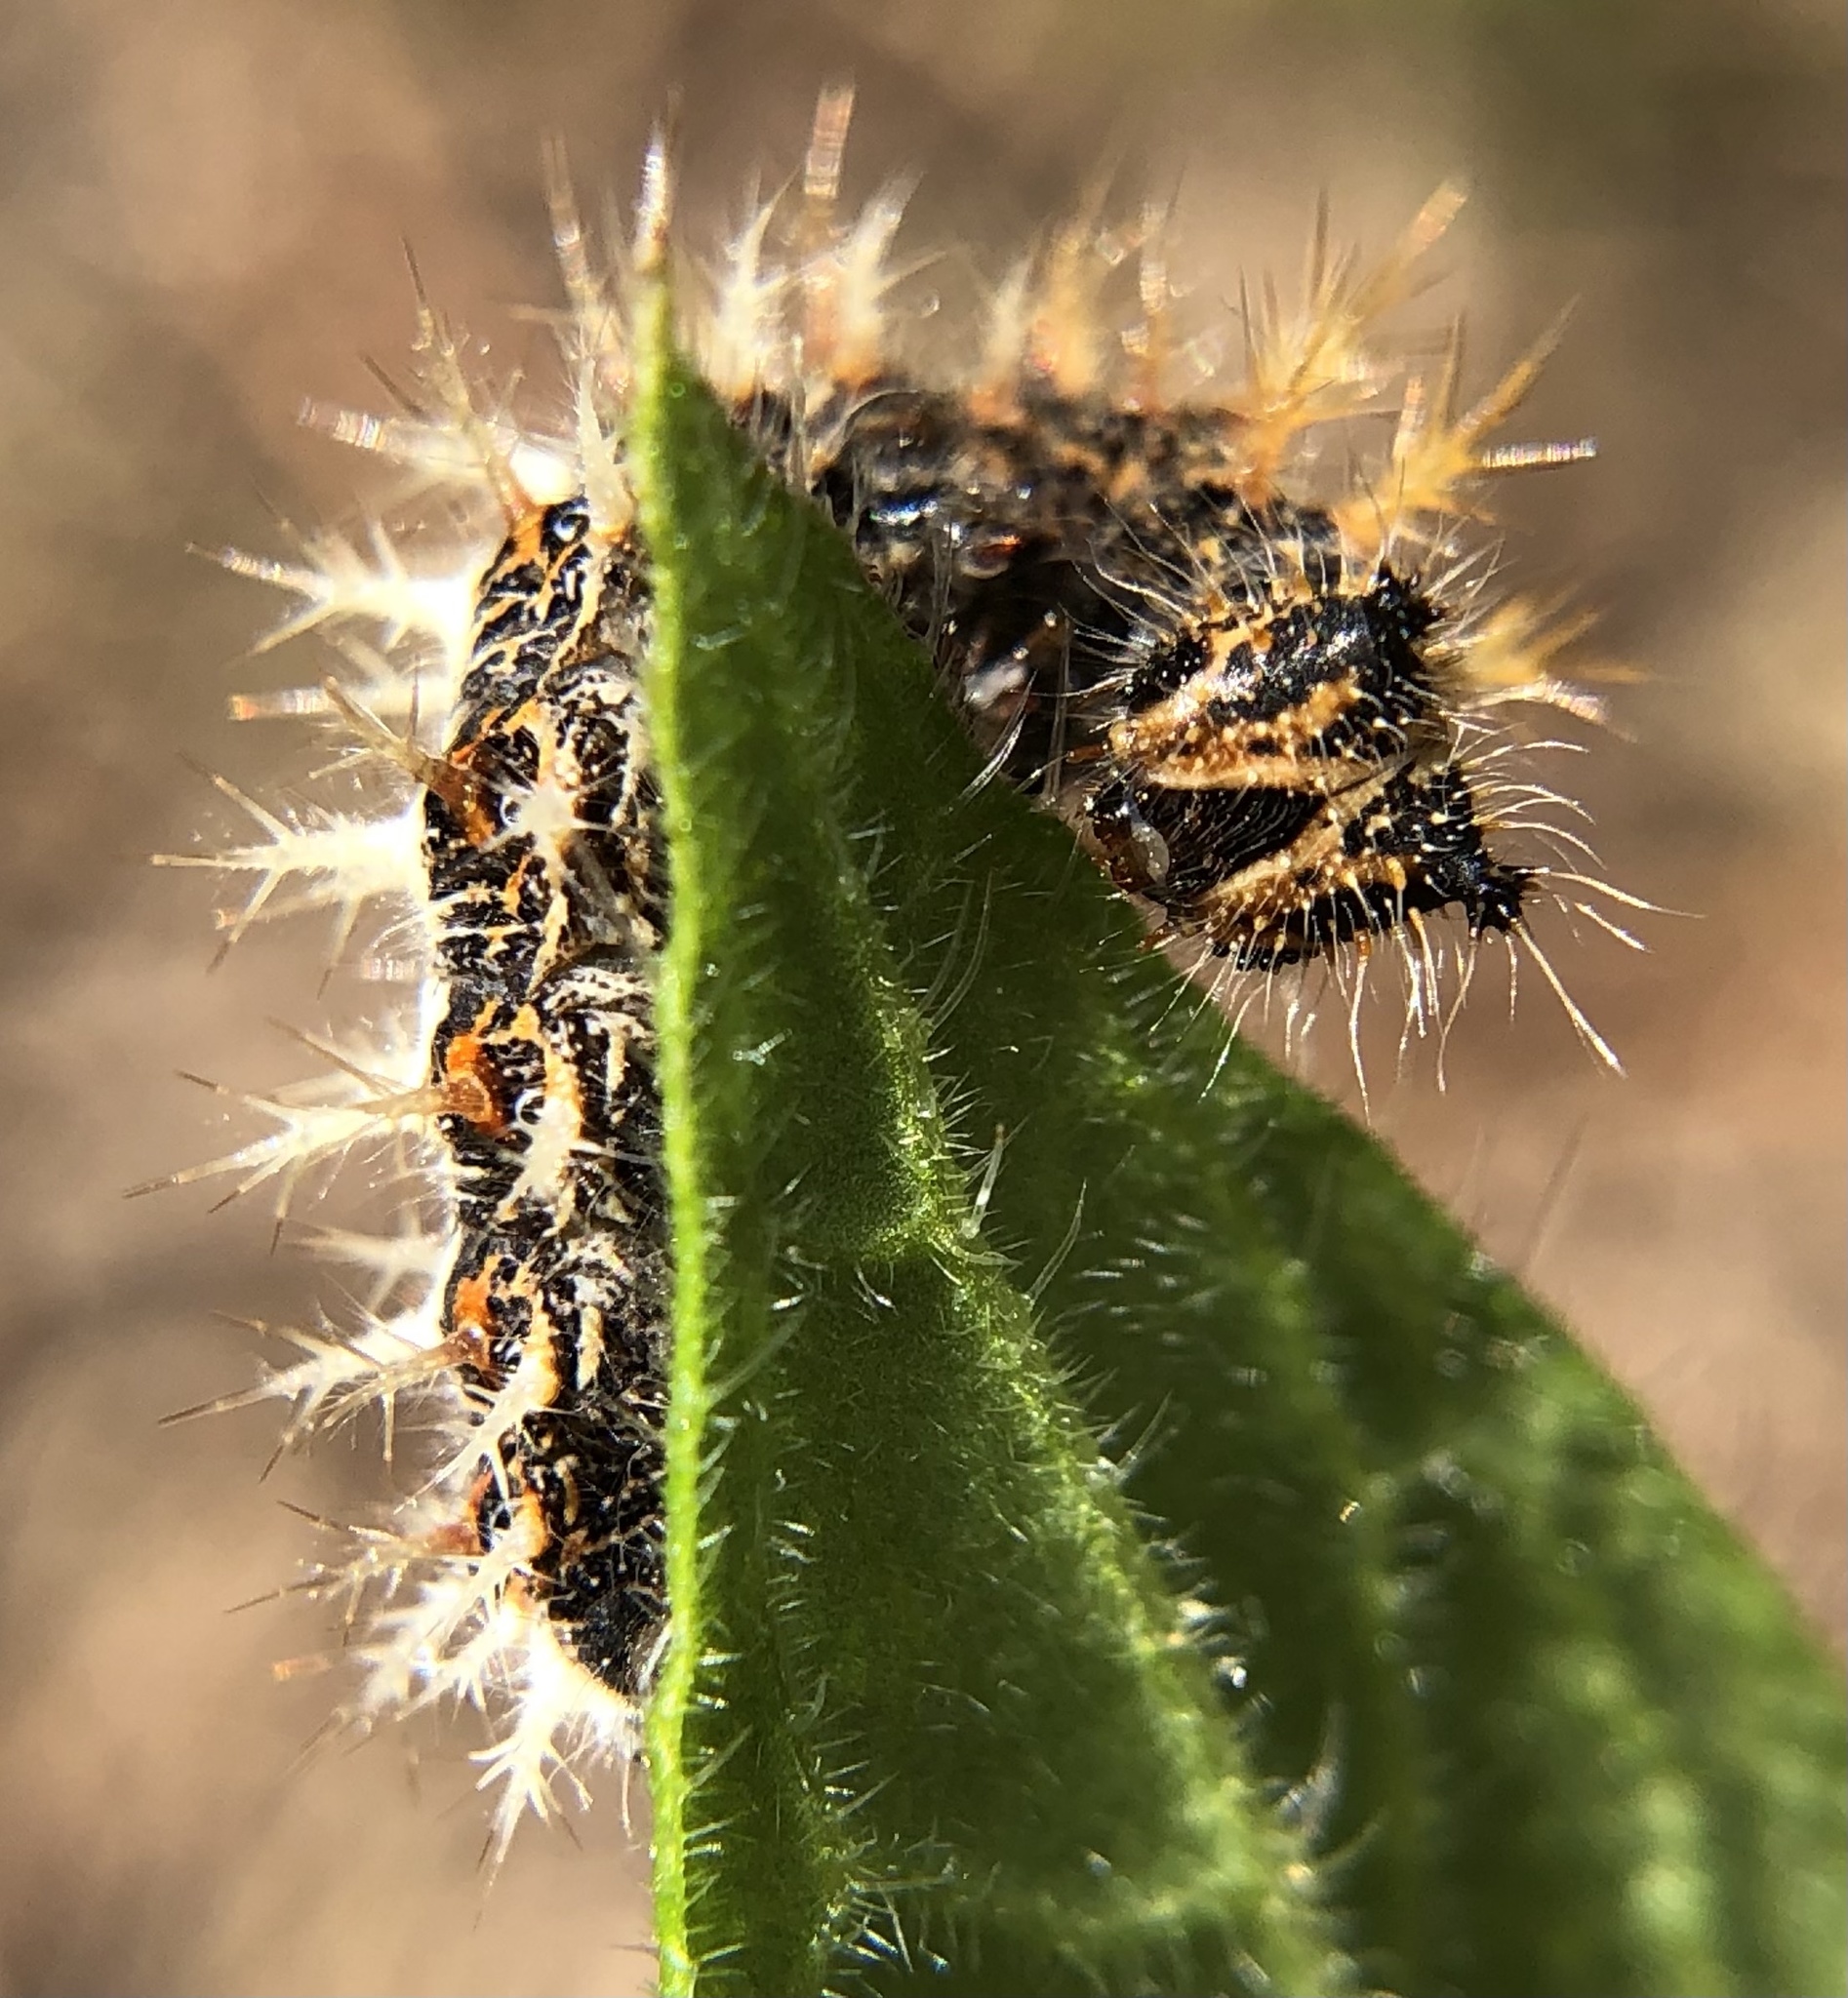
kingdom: Animalia
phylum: Arthropoda
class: Insecta
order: Lepidoptera
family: Nymphalidae
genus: Polygonia
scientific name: Polygonia c-album
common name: Comma
